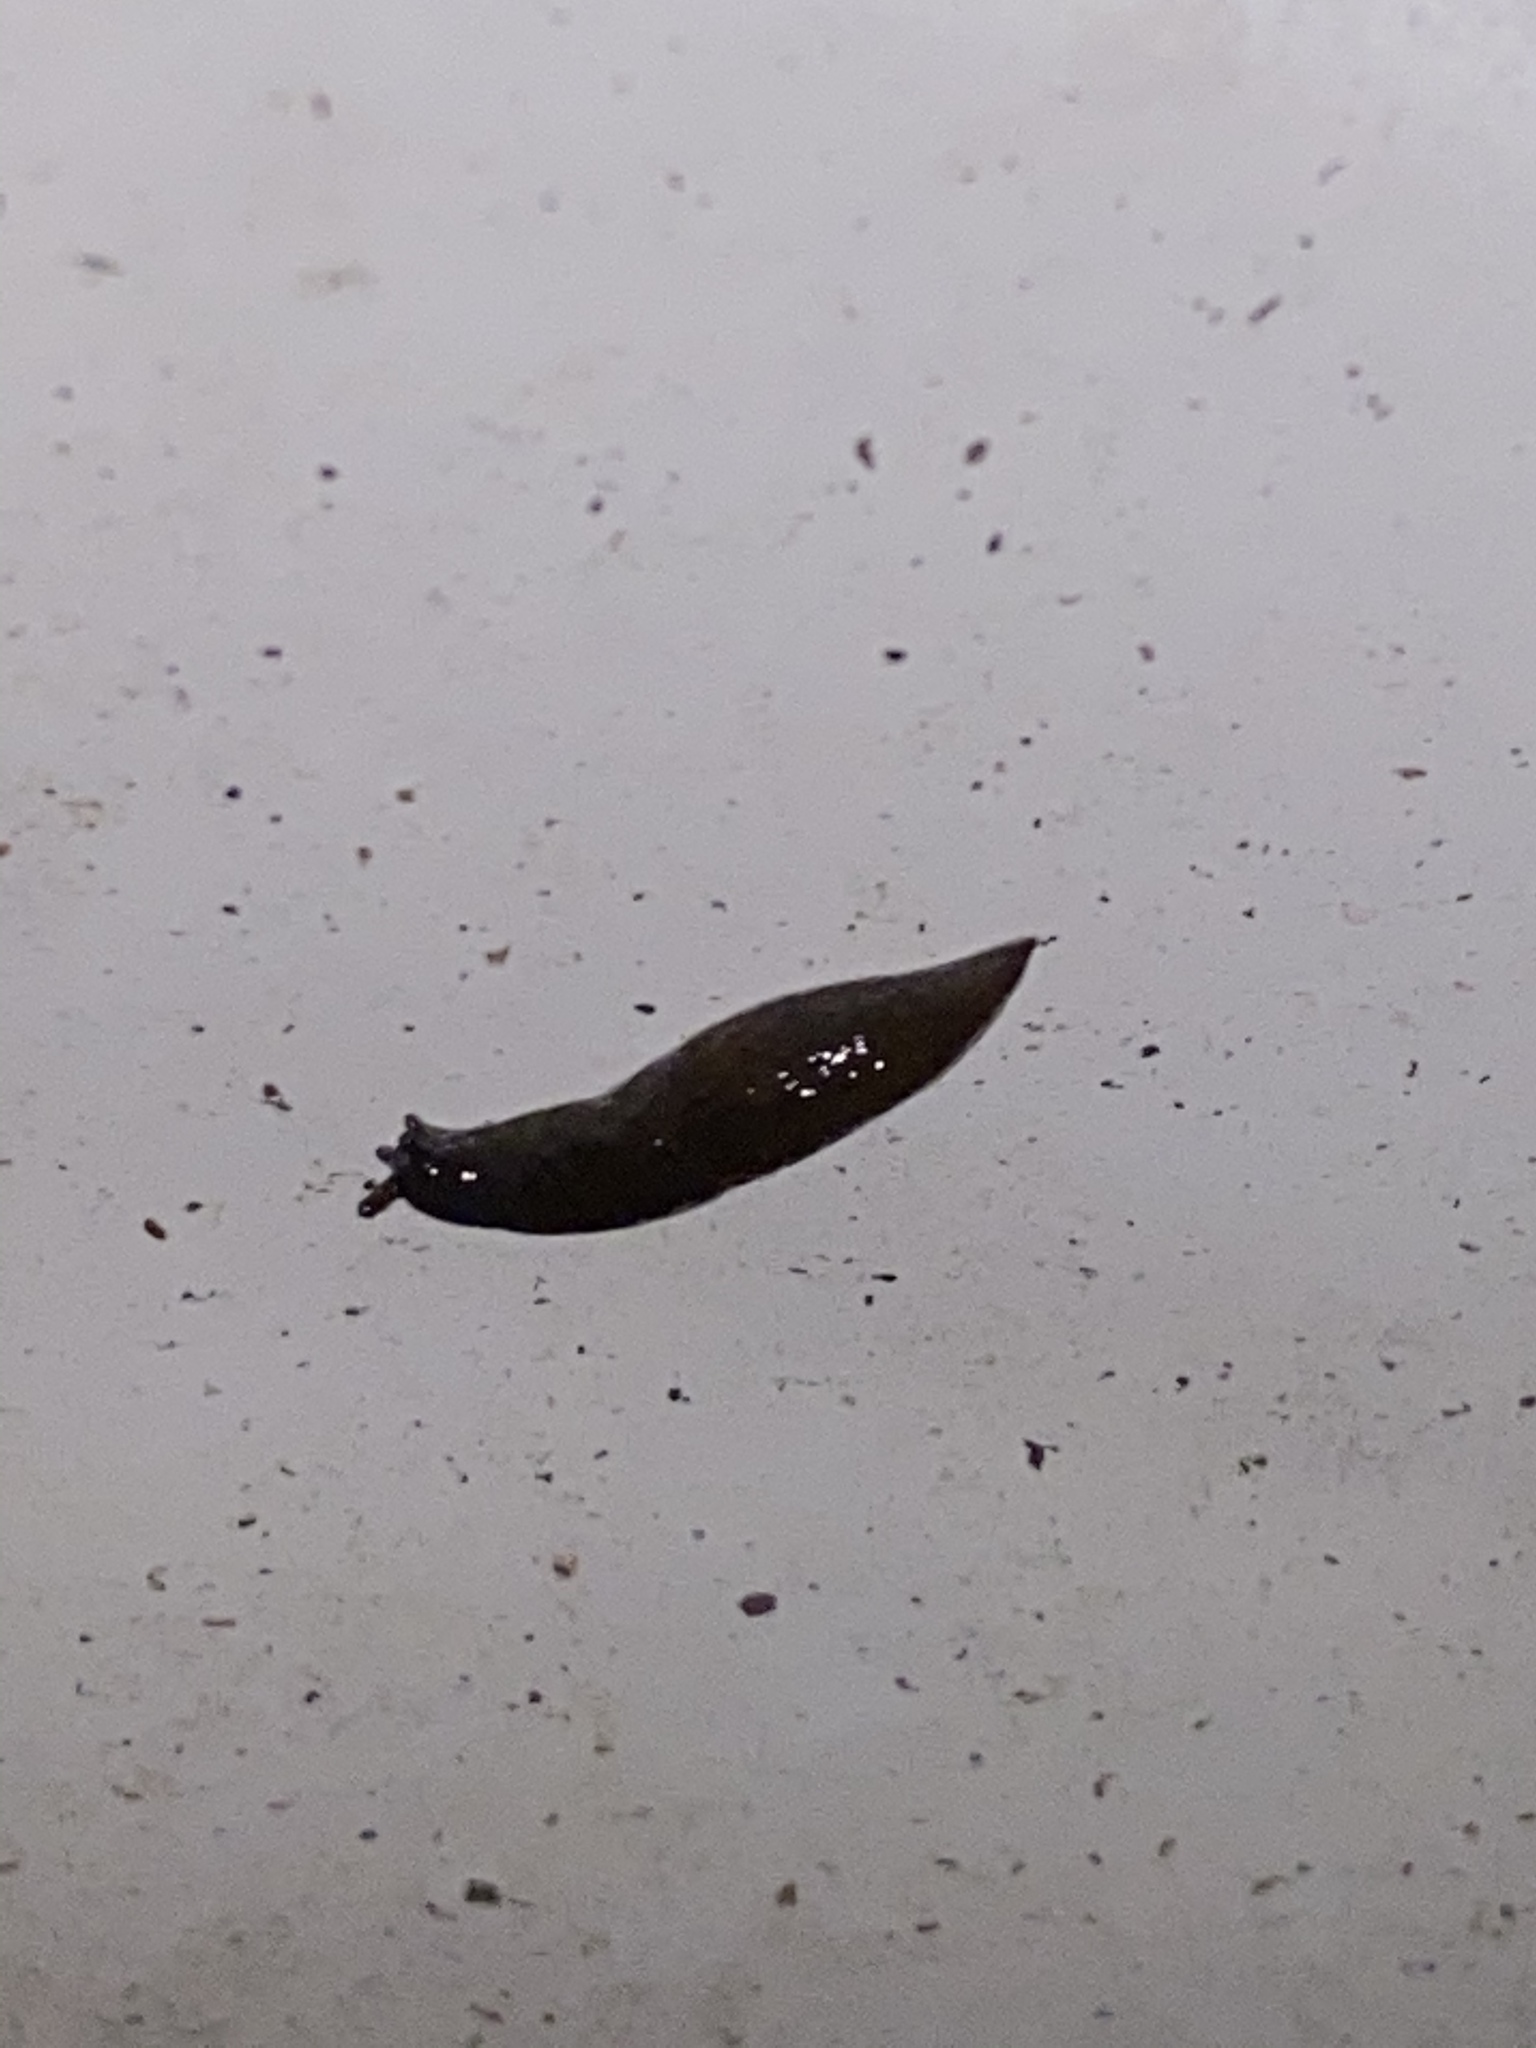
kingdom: Animalia
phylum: Mollusca
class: Gastropoda
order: Stylommatophora
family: Agriolimacidae
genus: Deroceras
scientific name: Deroceras laeve
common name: Marsh slug
